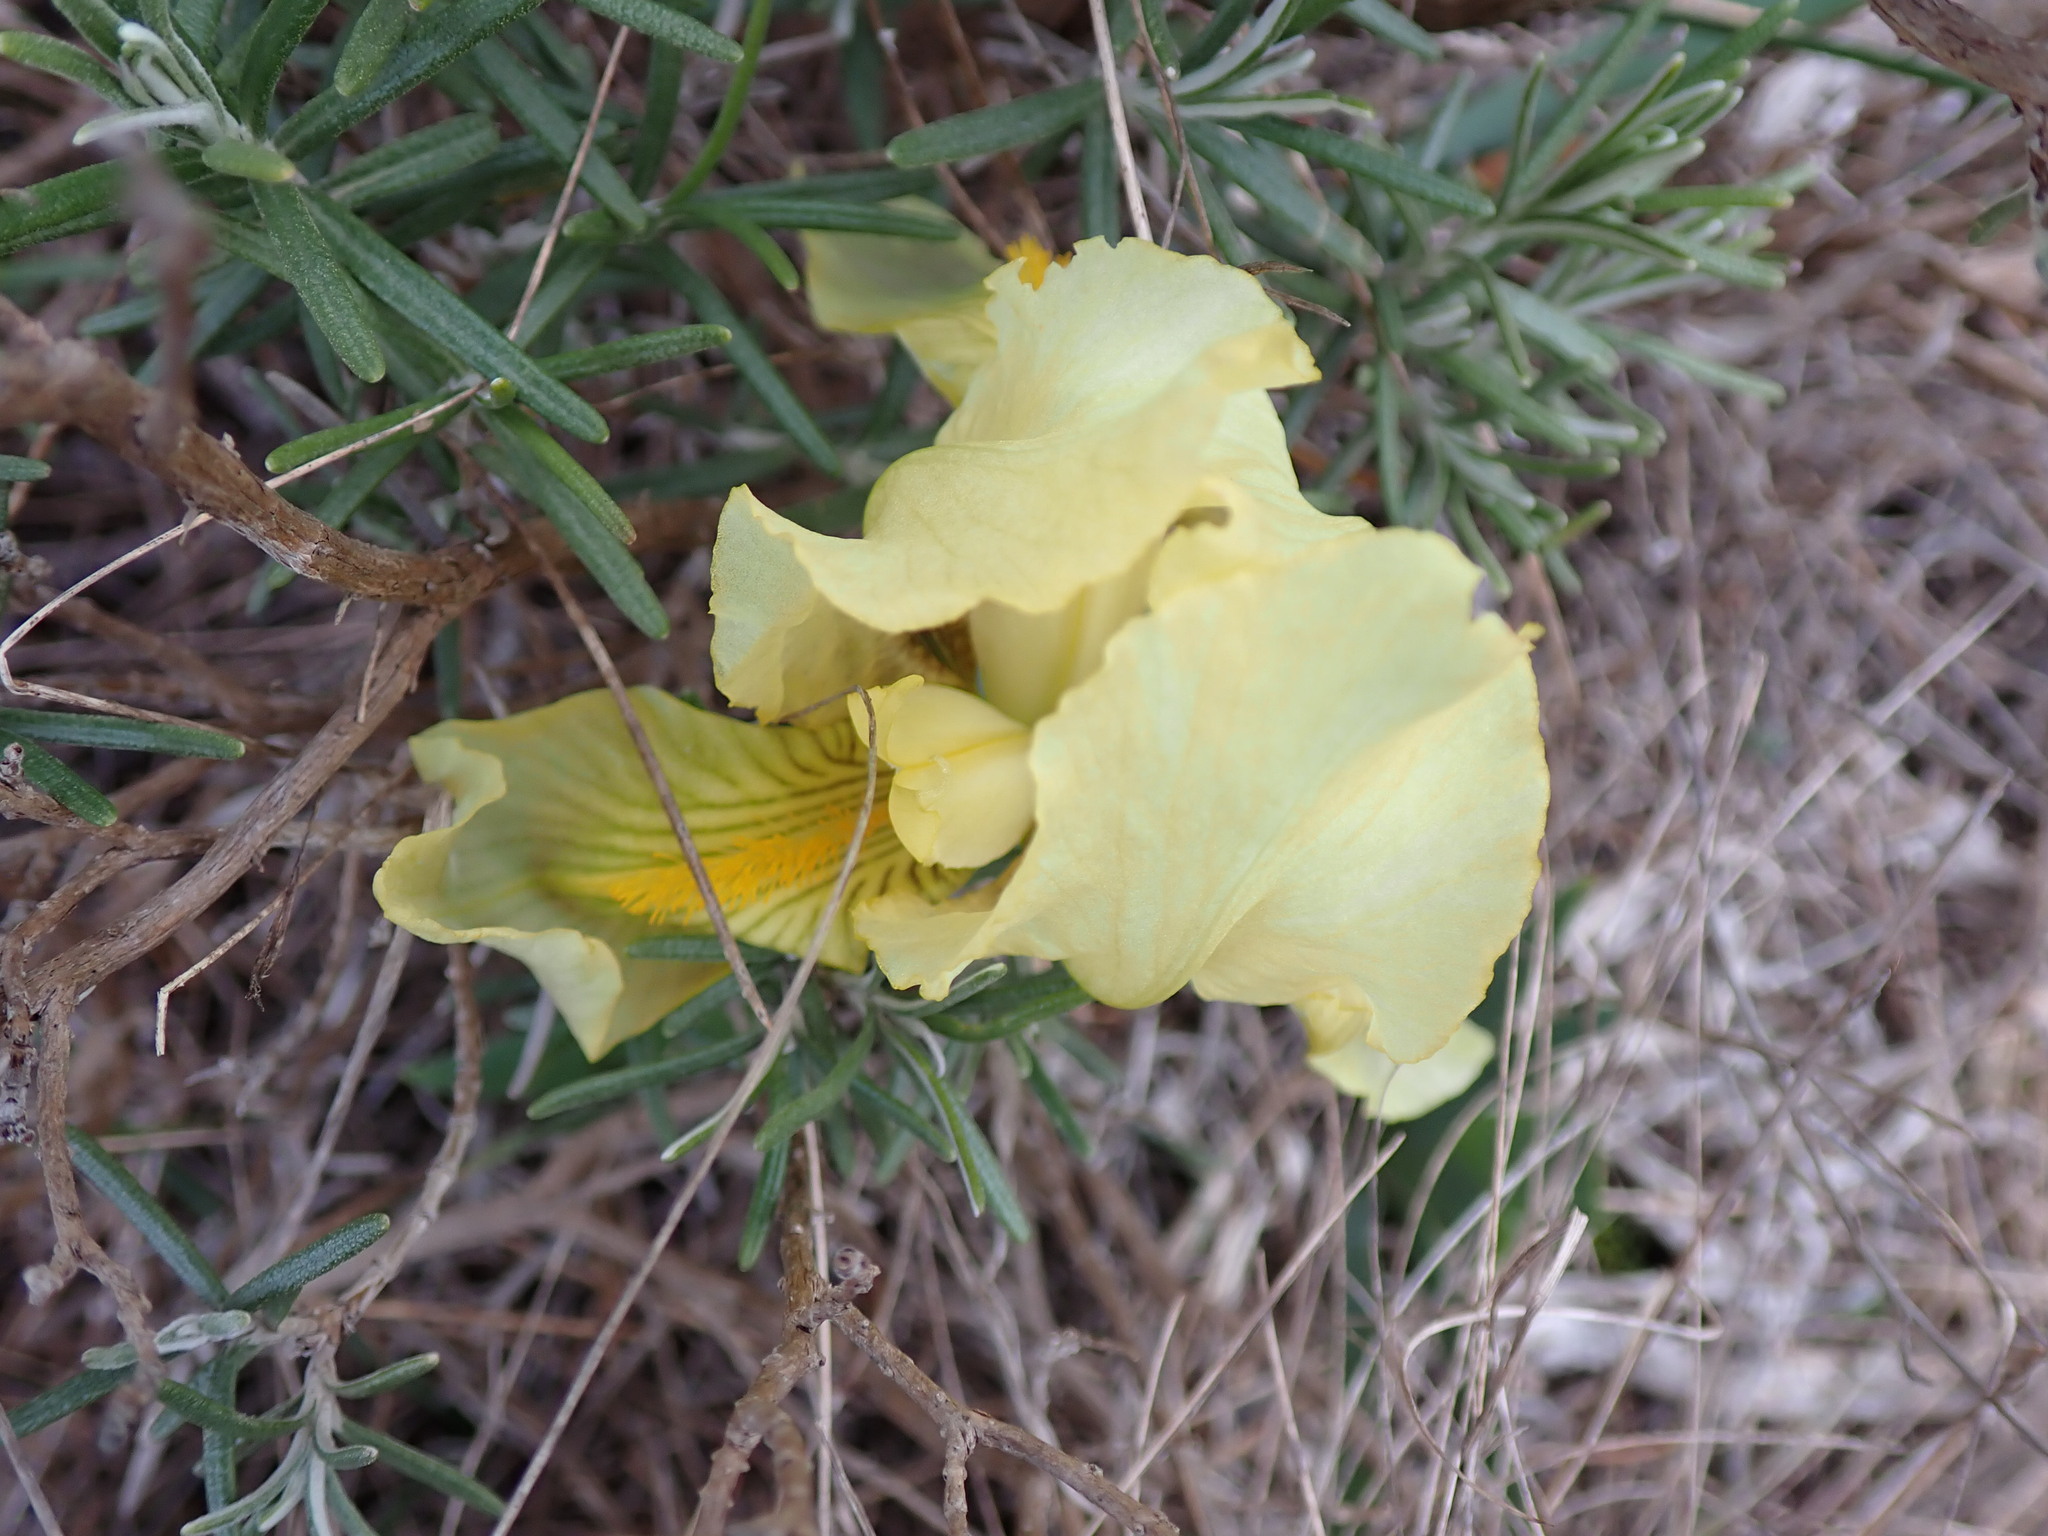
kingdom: Plantae
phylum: Tracheophyta
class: Liliopsida
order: Asparagales
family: Iridaceae
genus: Iris
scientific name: Iris lutescens
